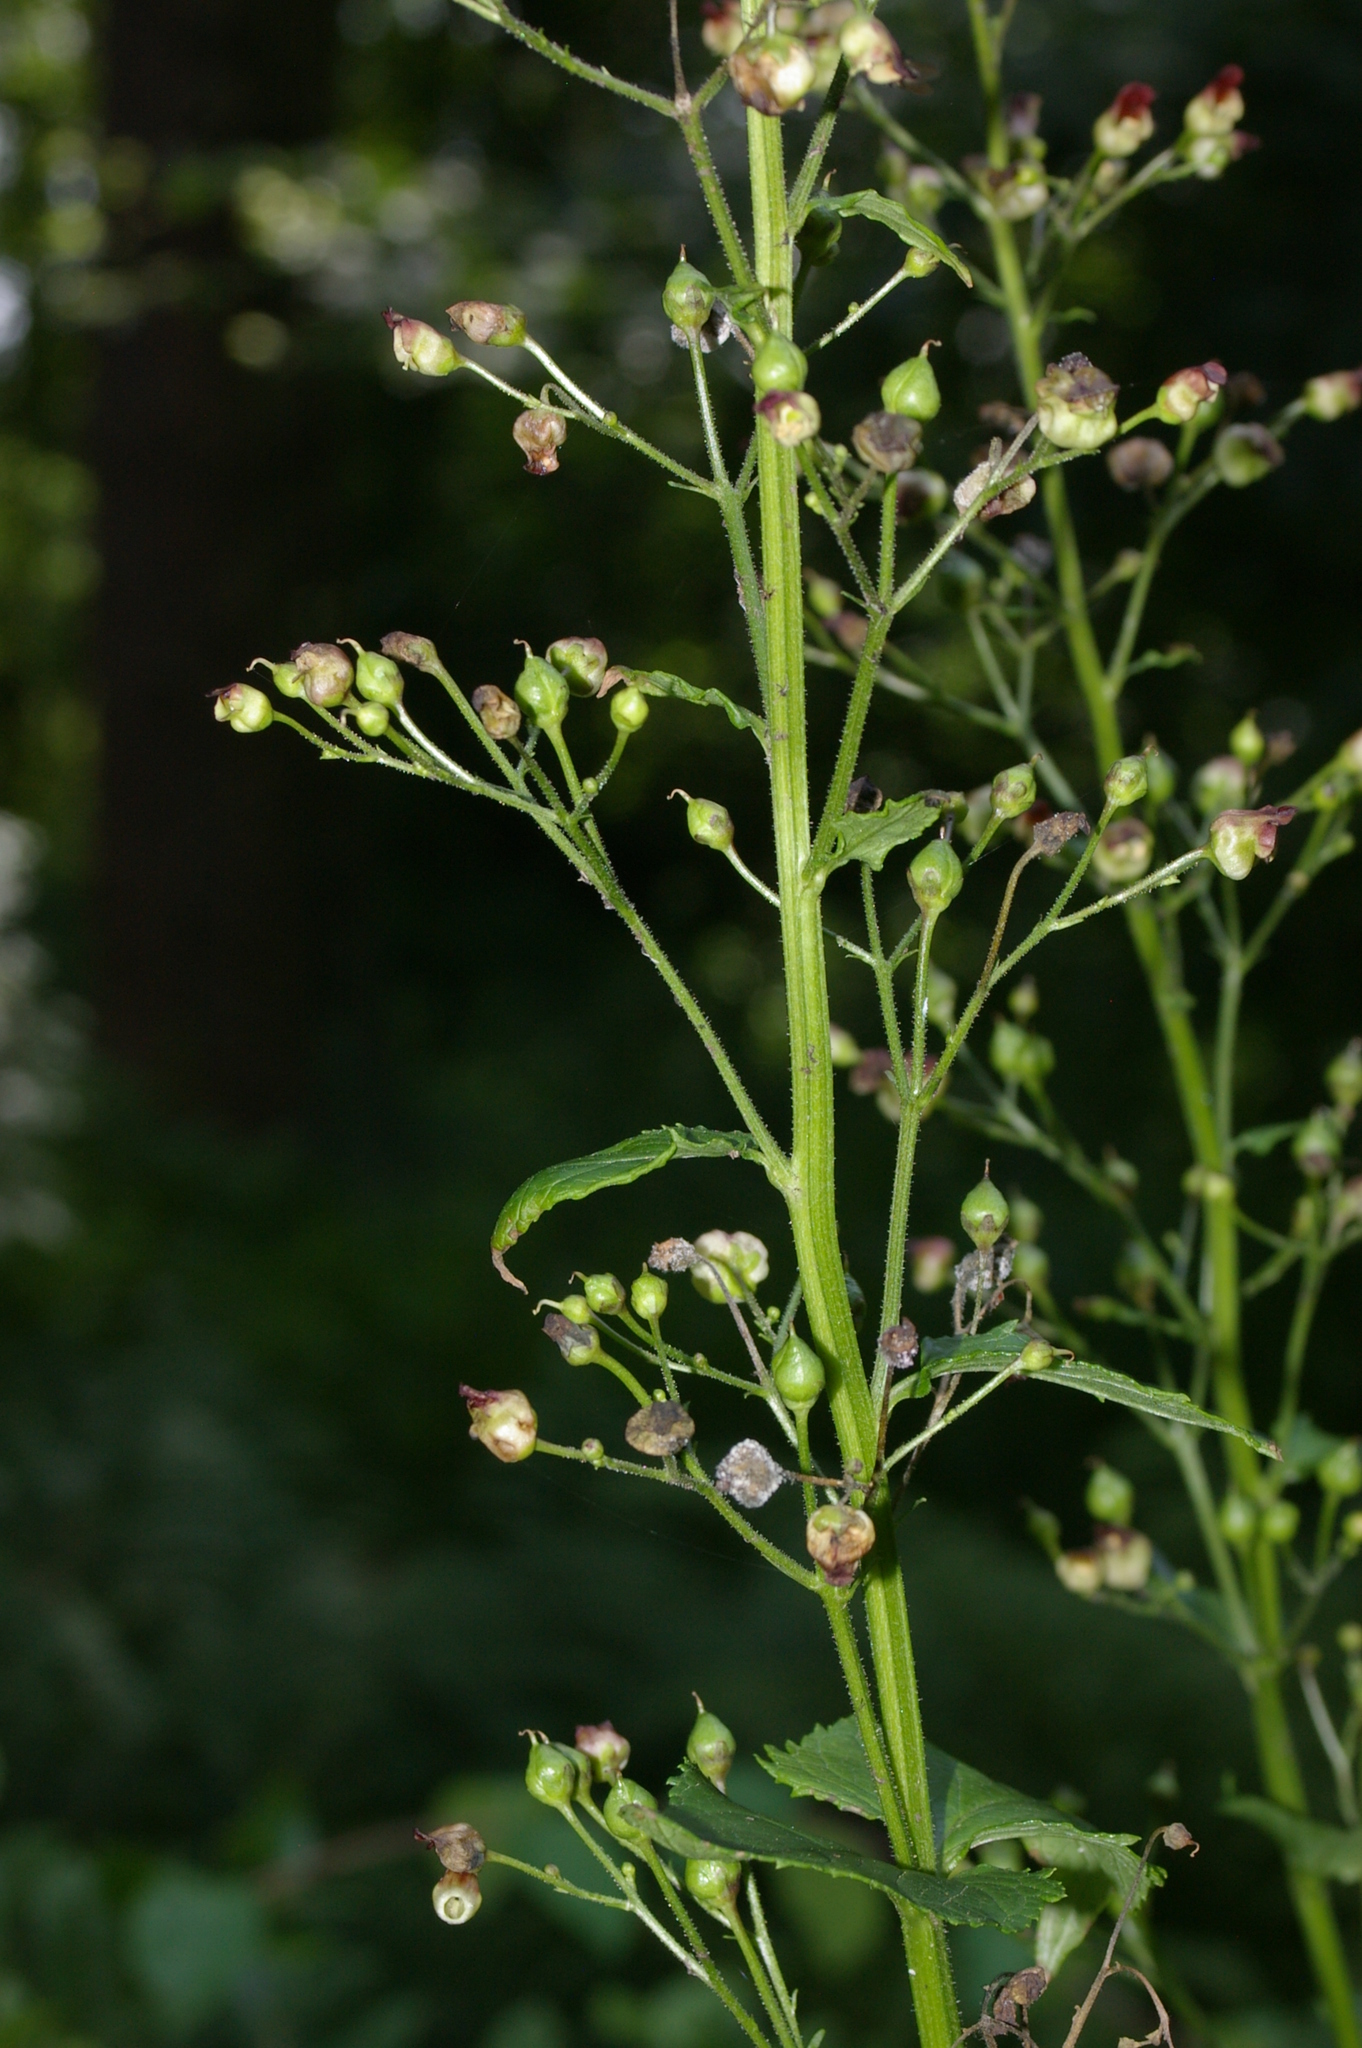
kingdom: Plantae
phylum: Tracheophyta
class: Magnoliopsida
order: Lamiales
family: Scrophulariaceae
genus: Scrophularia
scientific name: Scrophularia nodosa
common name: Common figwort
